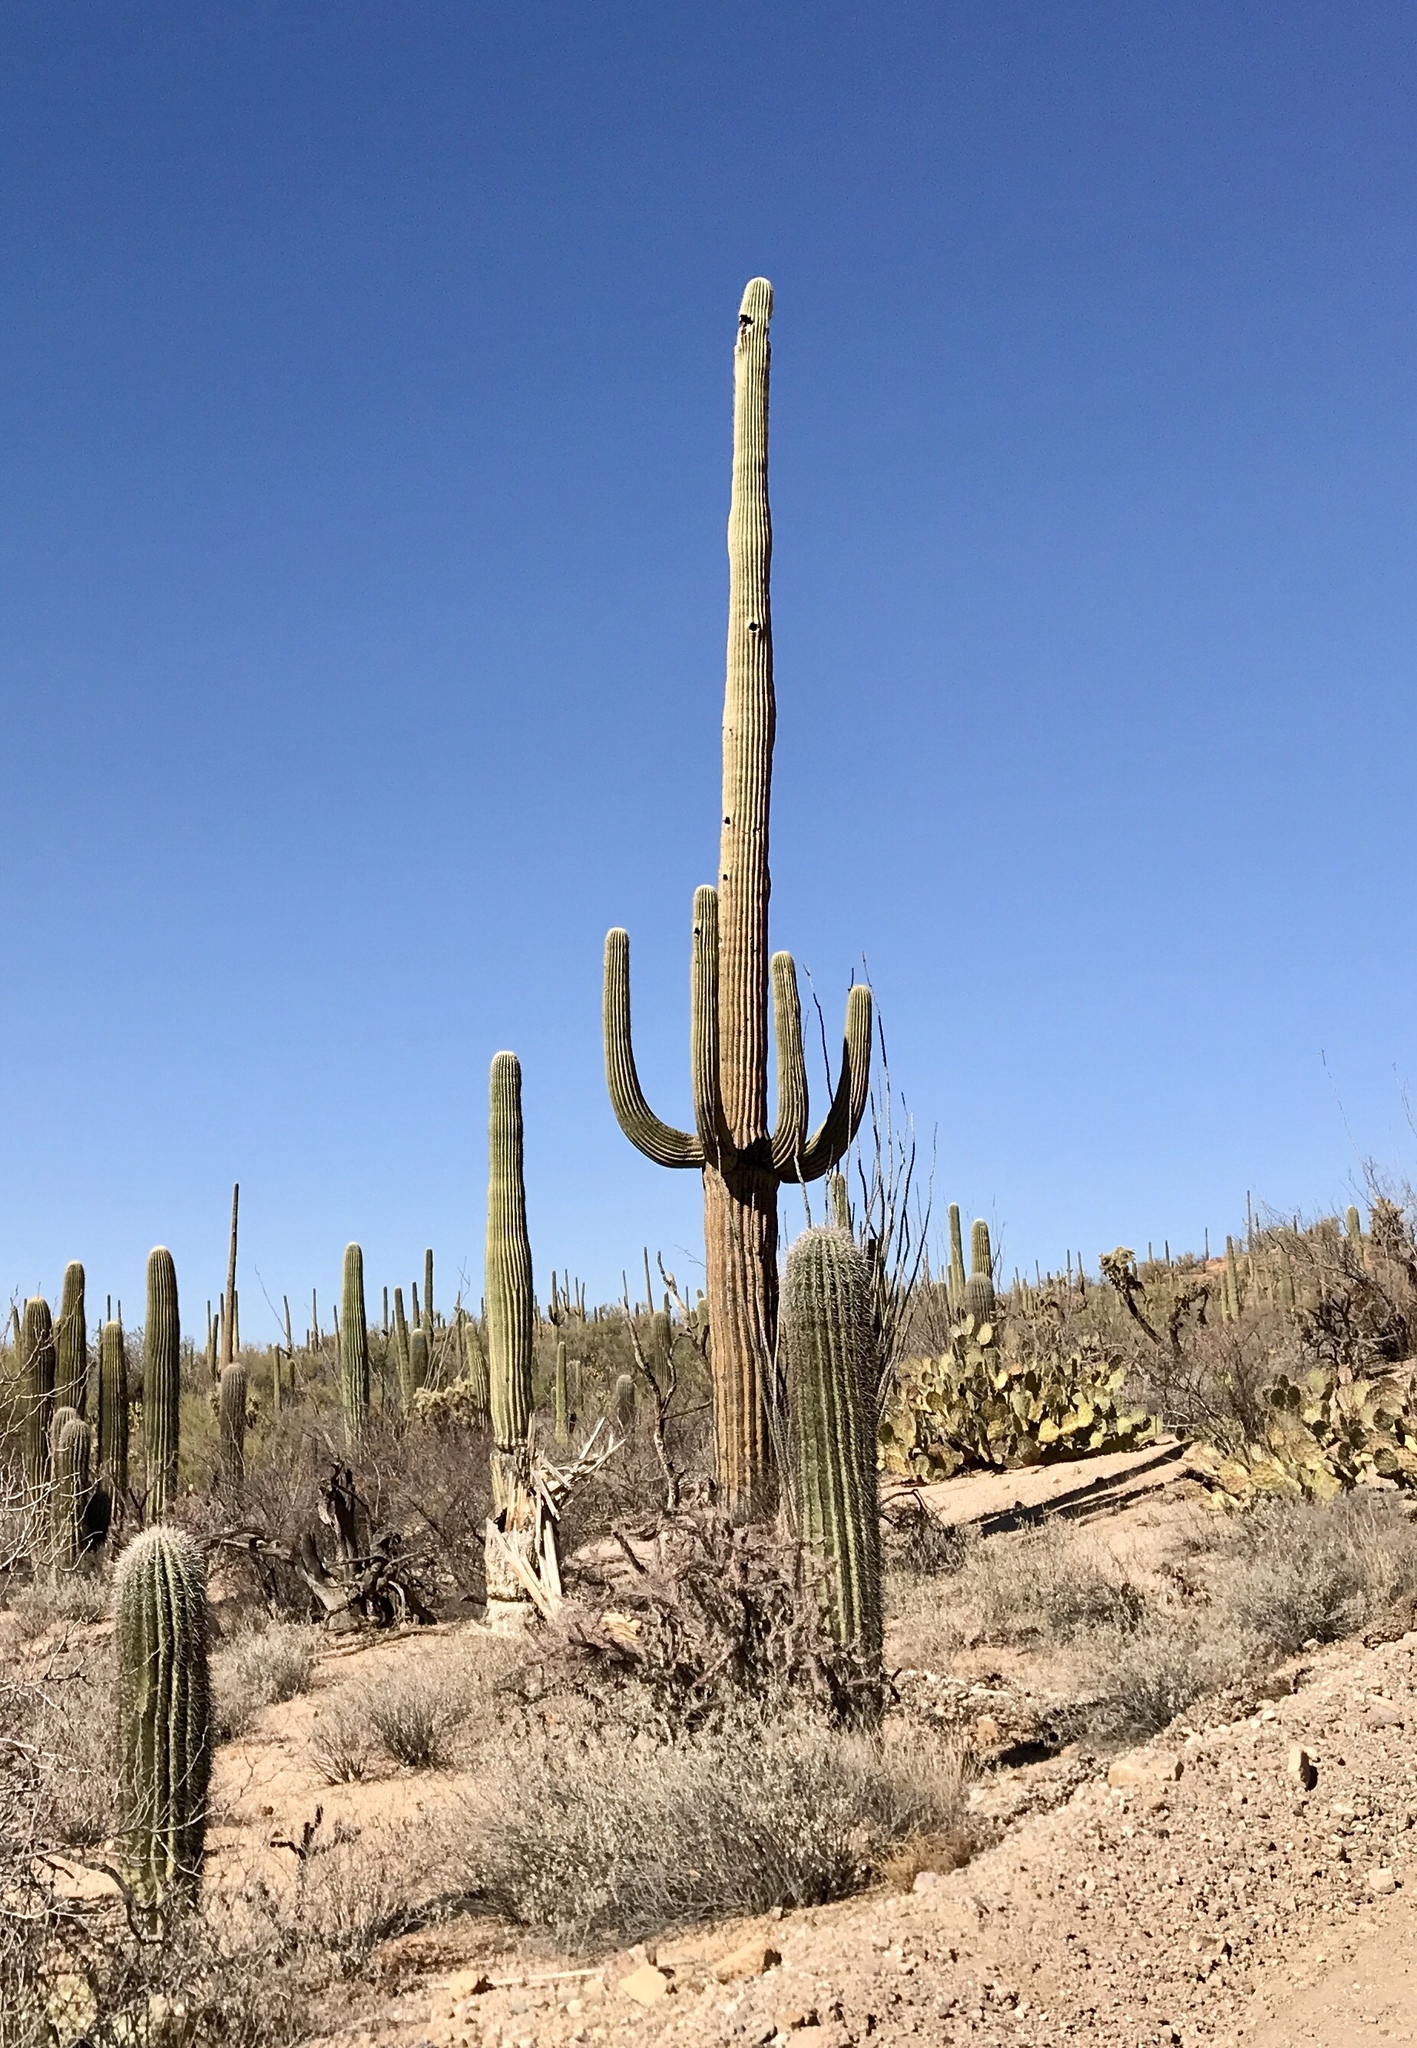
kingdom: Plantae
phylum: Tracheophyta
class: Magnoliopsida
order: Caryophyllales
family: Cactaceae
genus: Carnegiea
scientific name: Carnegiea gigantea
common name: Saguaro
